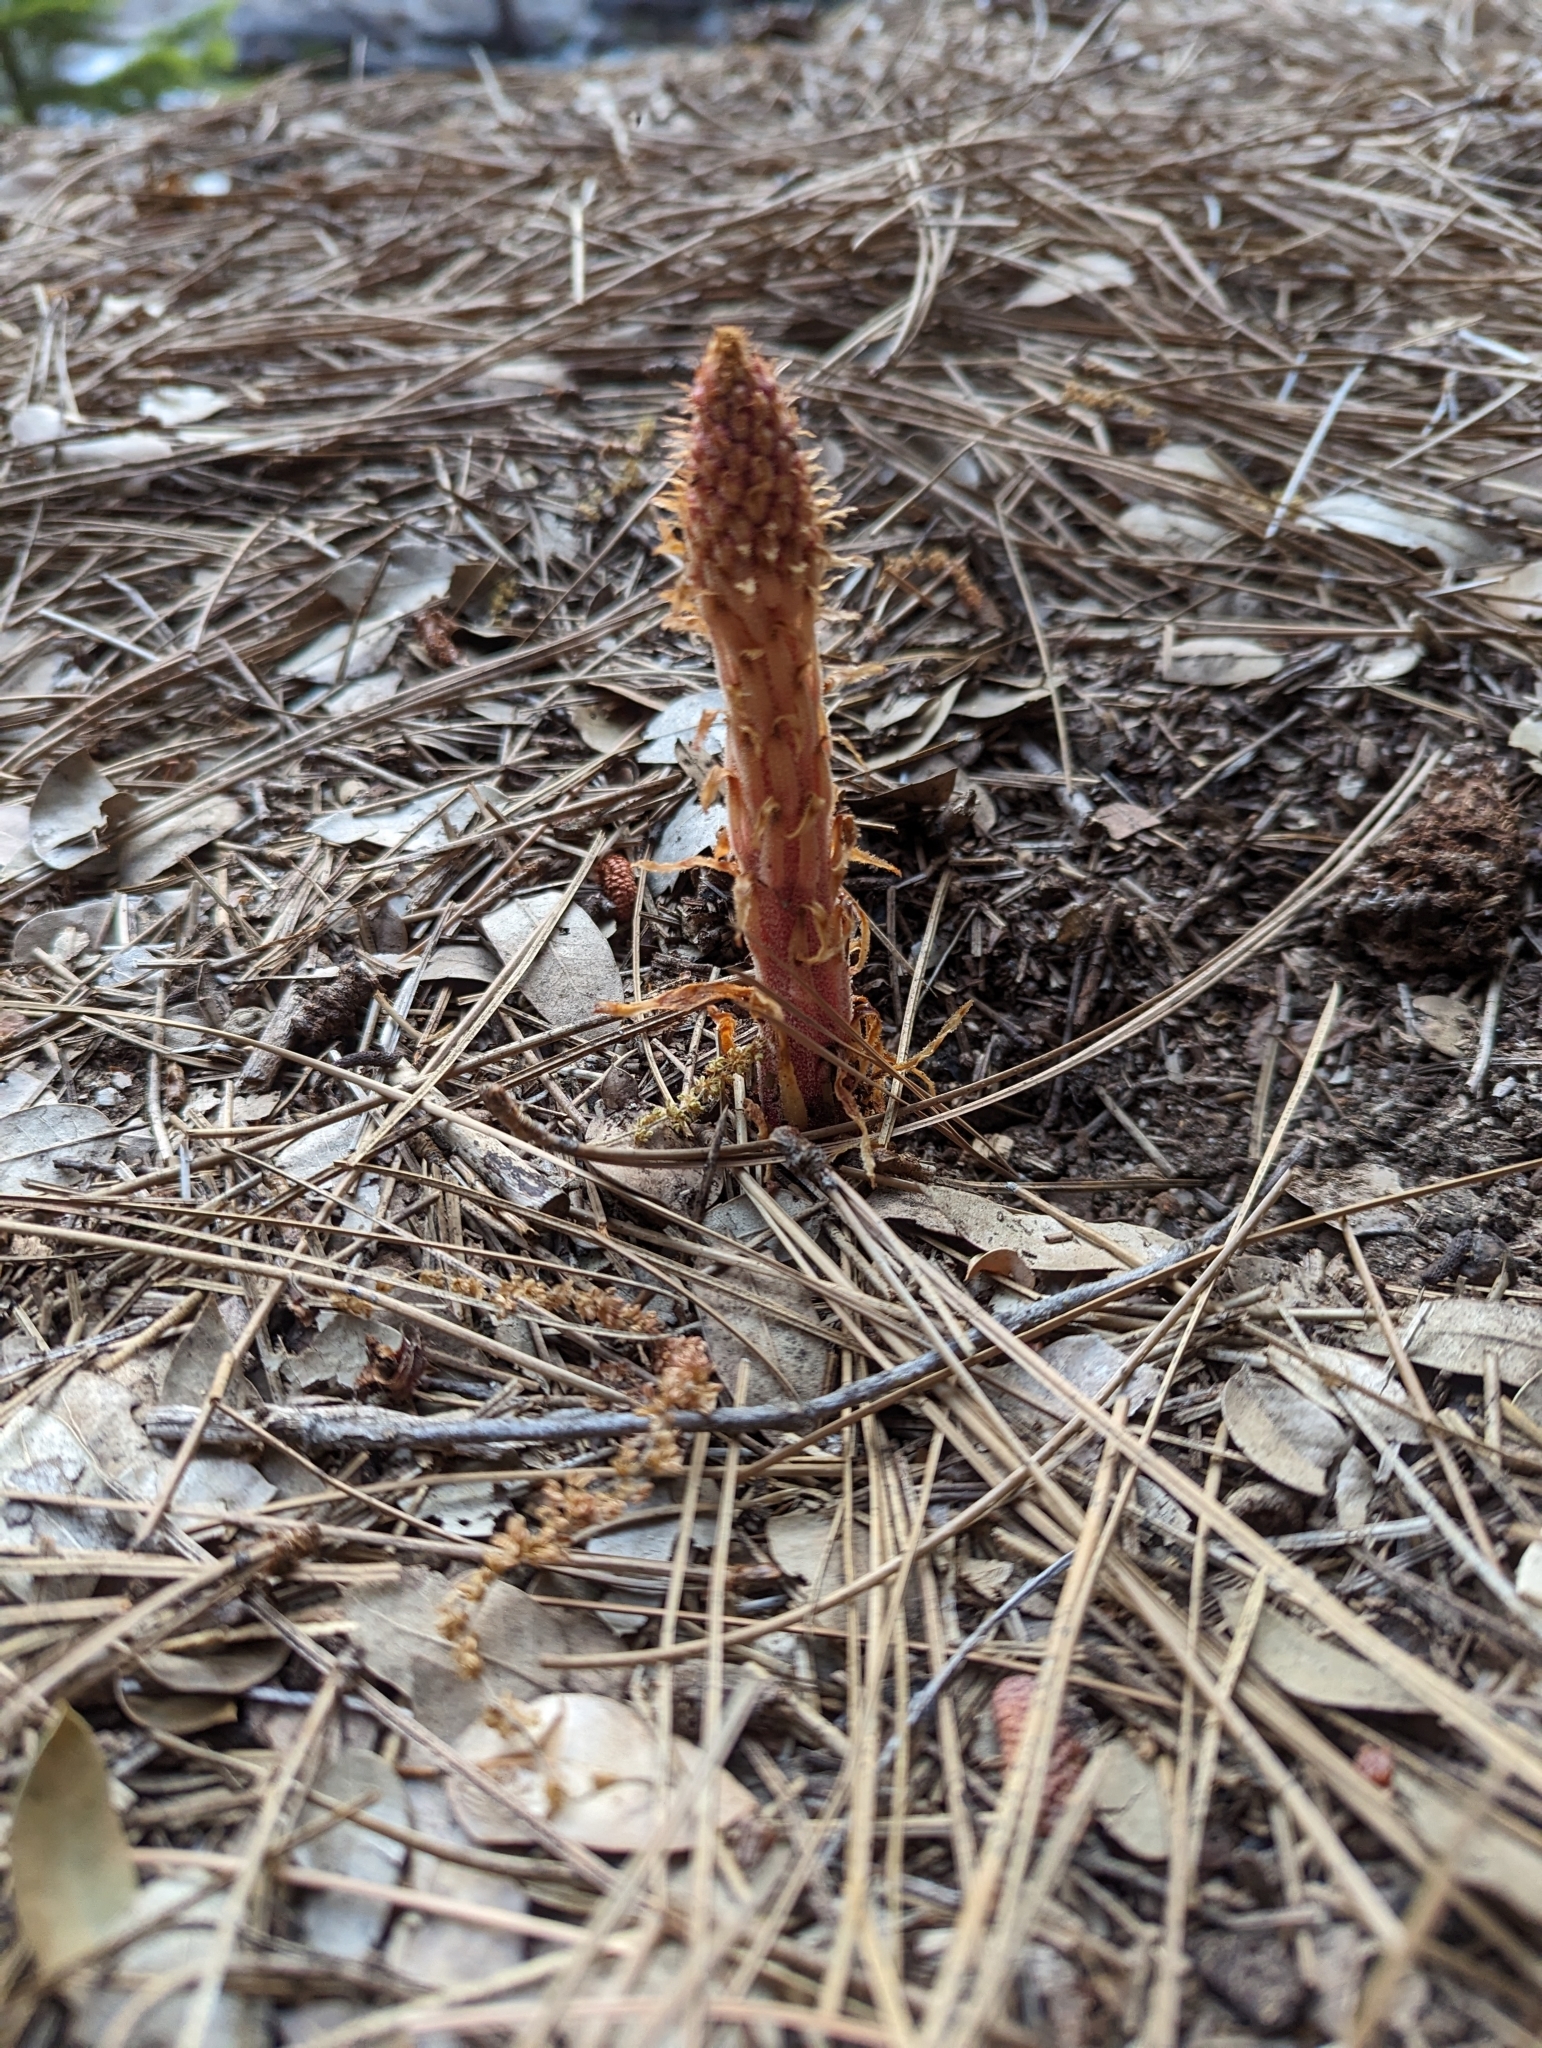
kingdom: Plantae
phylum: Tracheophyta
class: Magnoliopsida
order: Ericales
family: Ericaceae
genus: Pterospora
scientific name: Pterospora andromedea
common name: Giant bird's-nest
